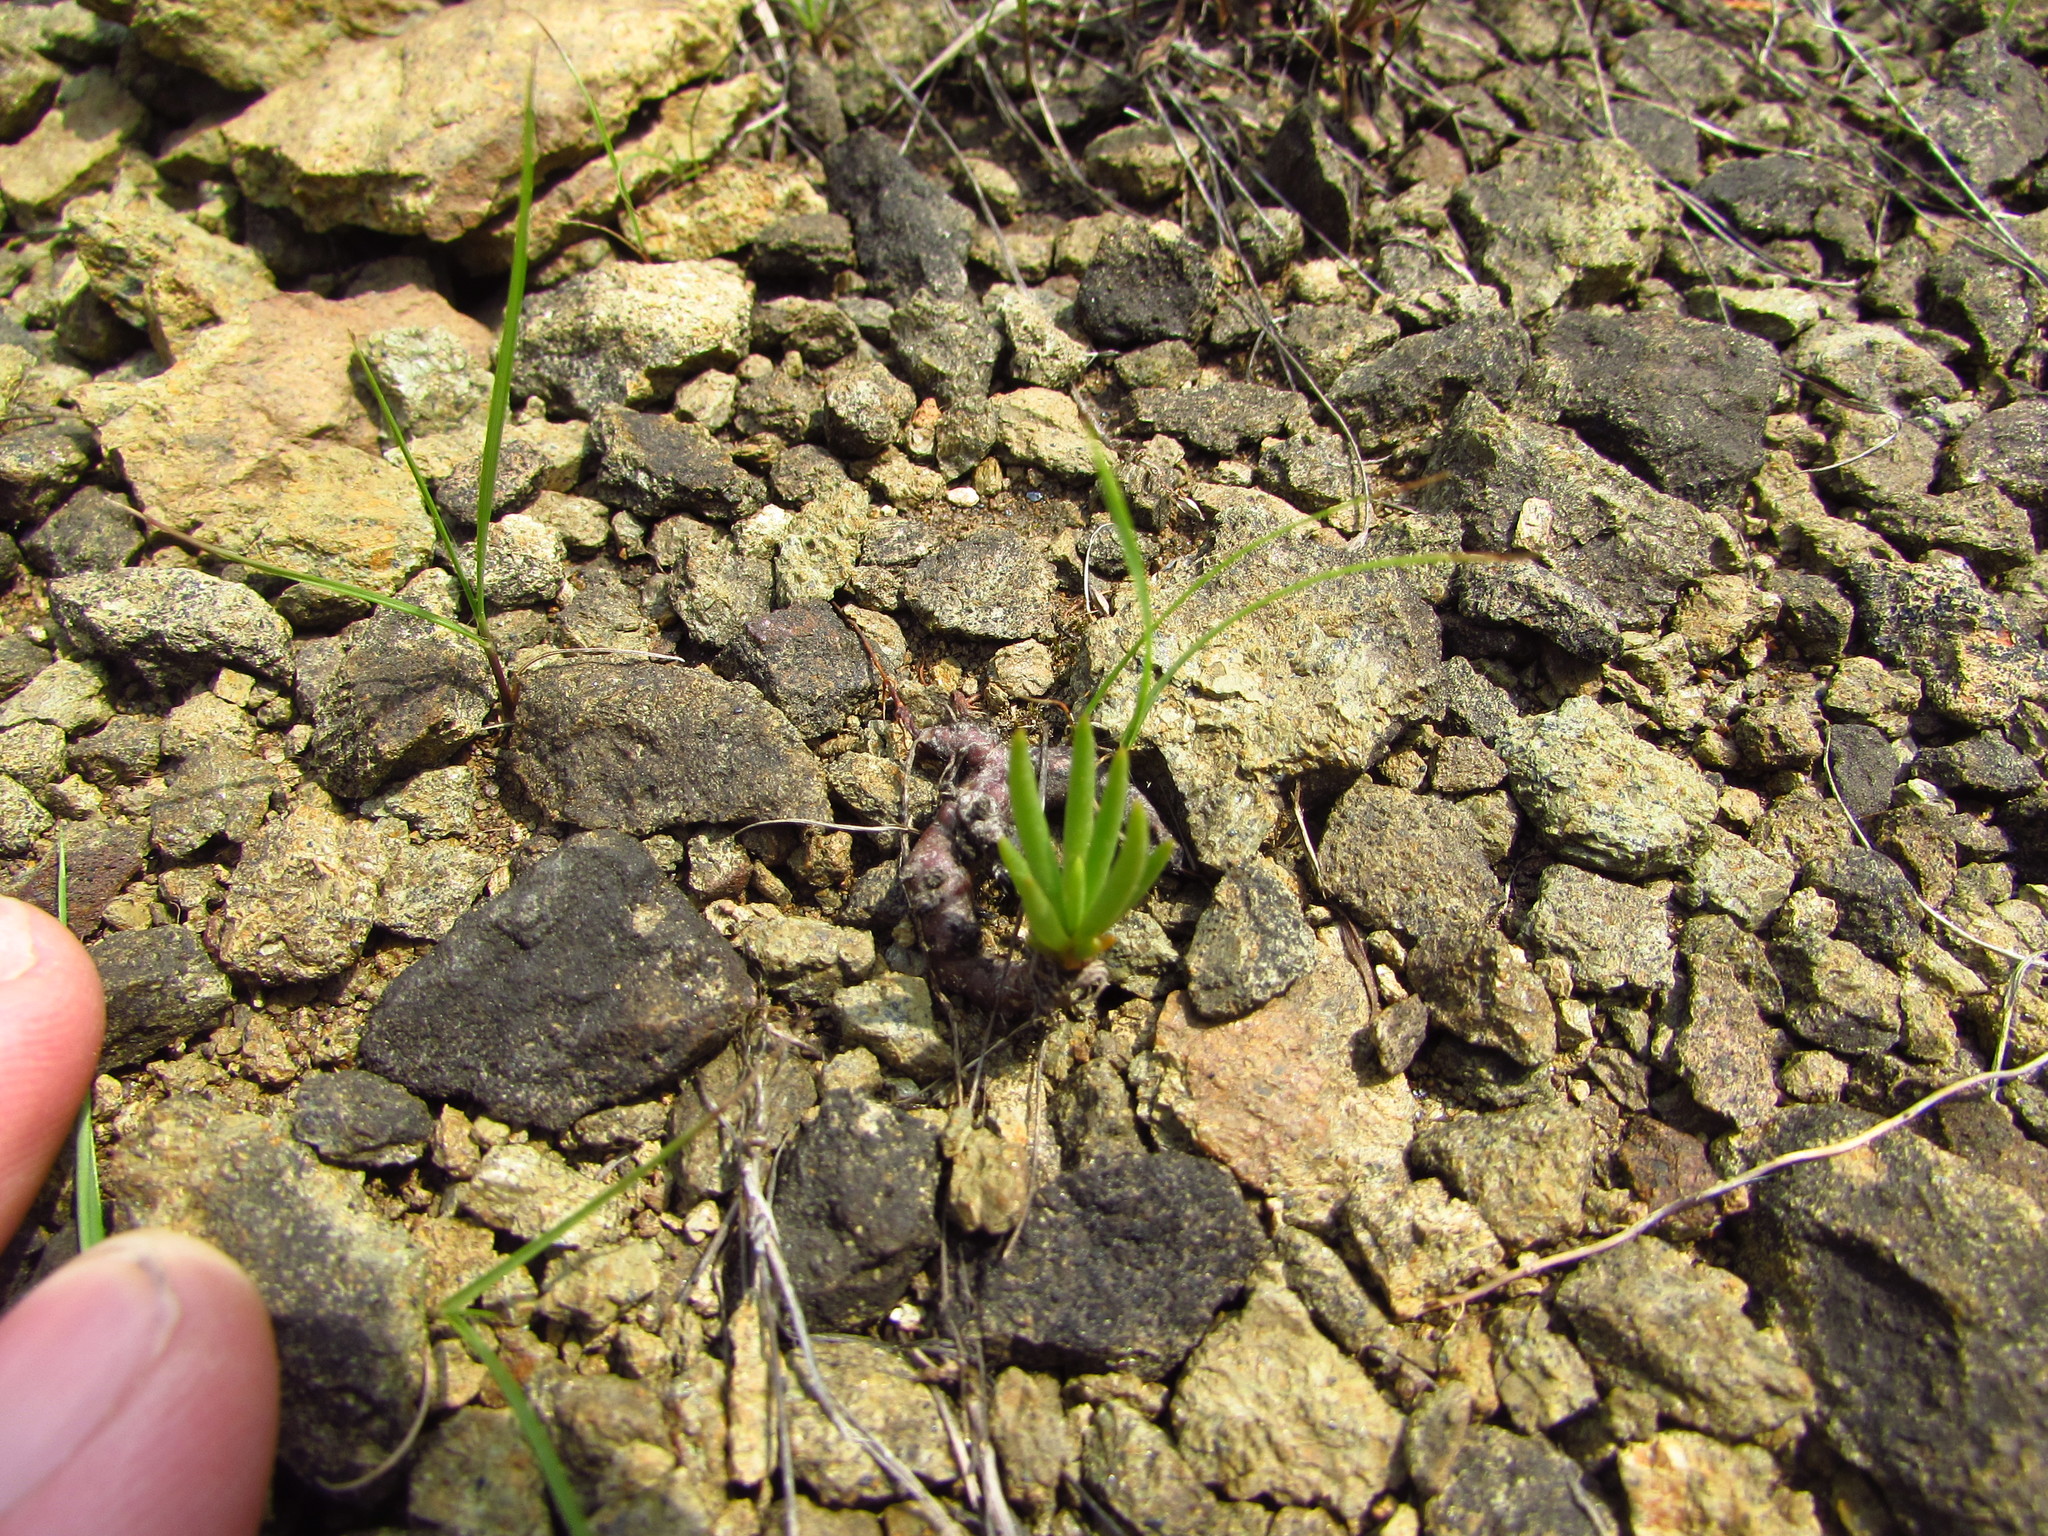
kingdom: Plantae
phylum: Tracheophyta
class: Magnoliopsida
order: Caryophyllales
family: Montiaceae
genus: Phemeranthus
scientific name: Phemeranthus teretifolius
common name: Quill fameflower
